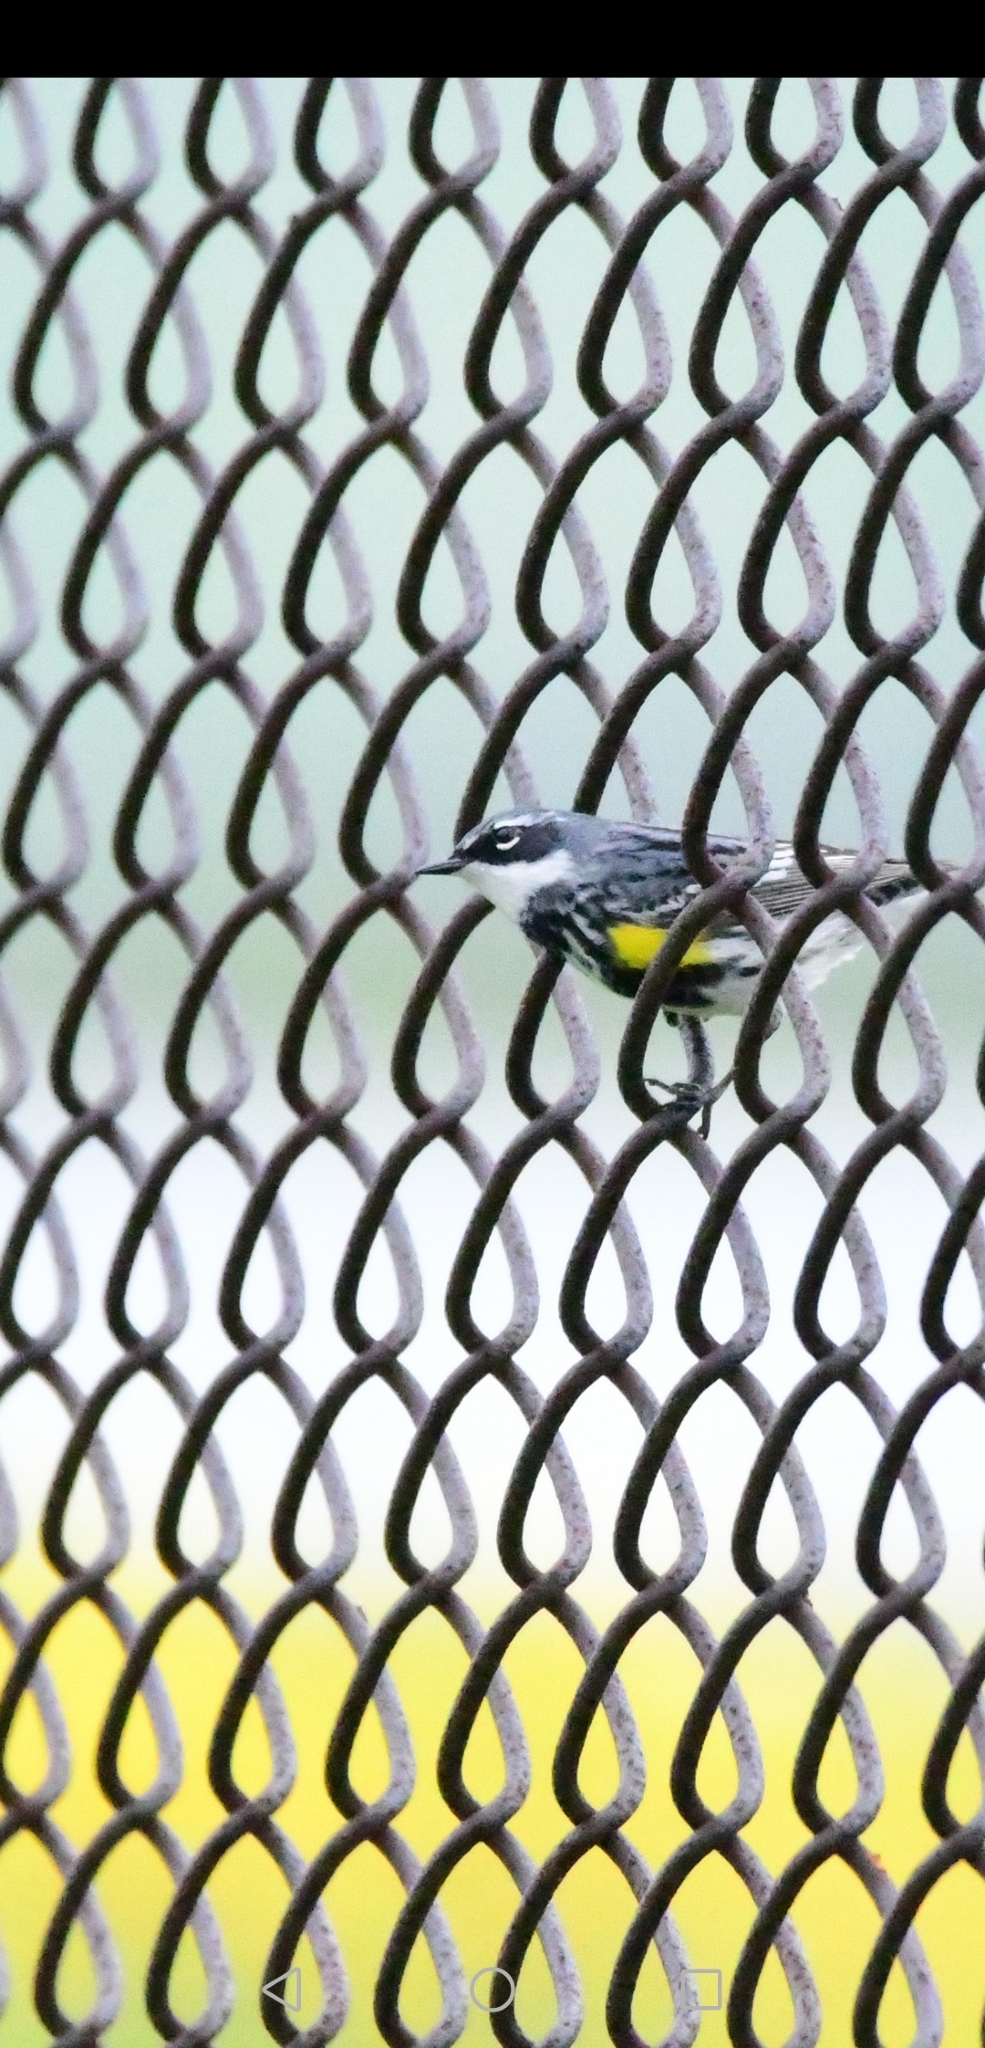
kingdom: Animalia
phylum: Chordata
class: Aves
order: Passeriformes
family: Parulidae
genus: Setophaga
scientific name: Setophaga coronata
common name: Myrtle warbler
